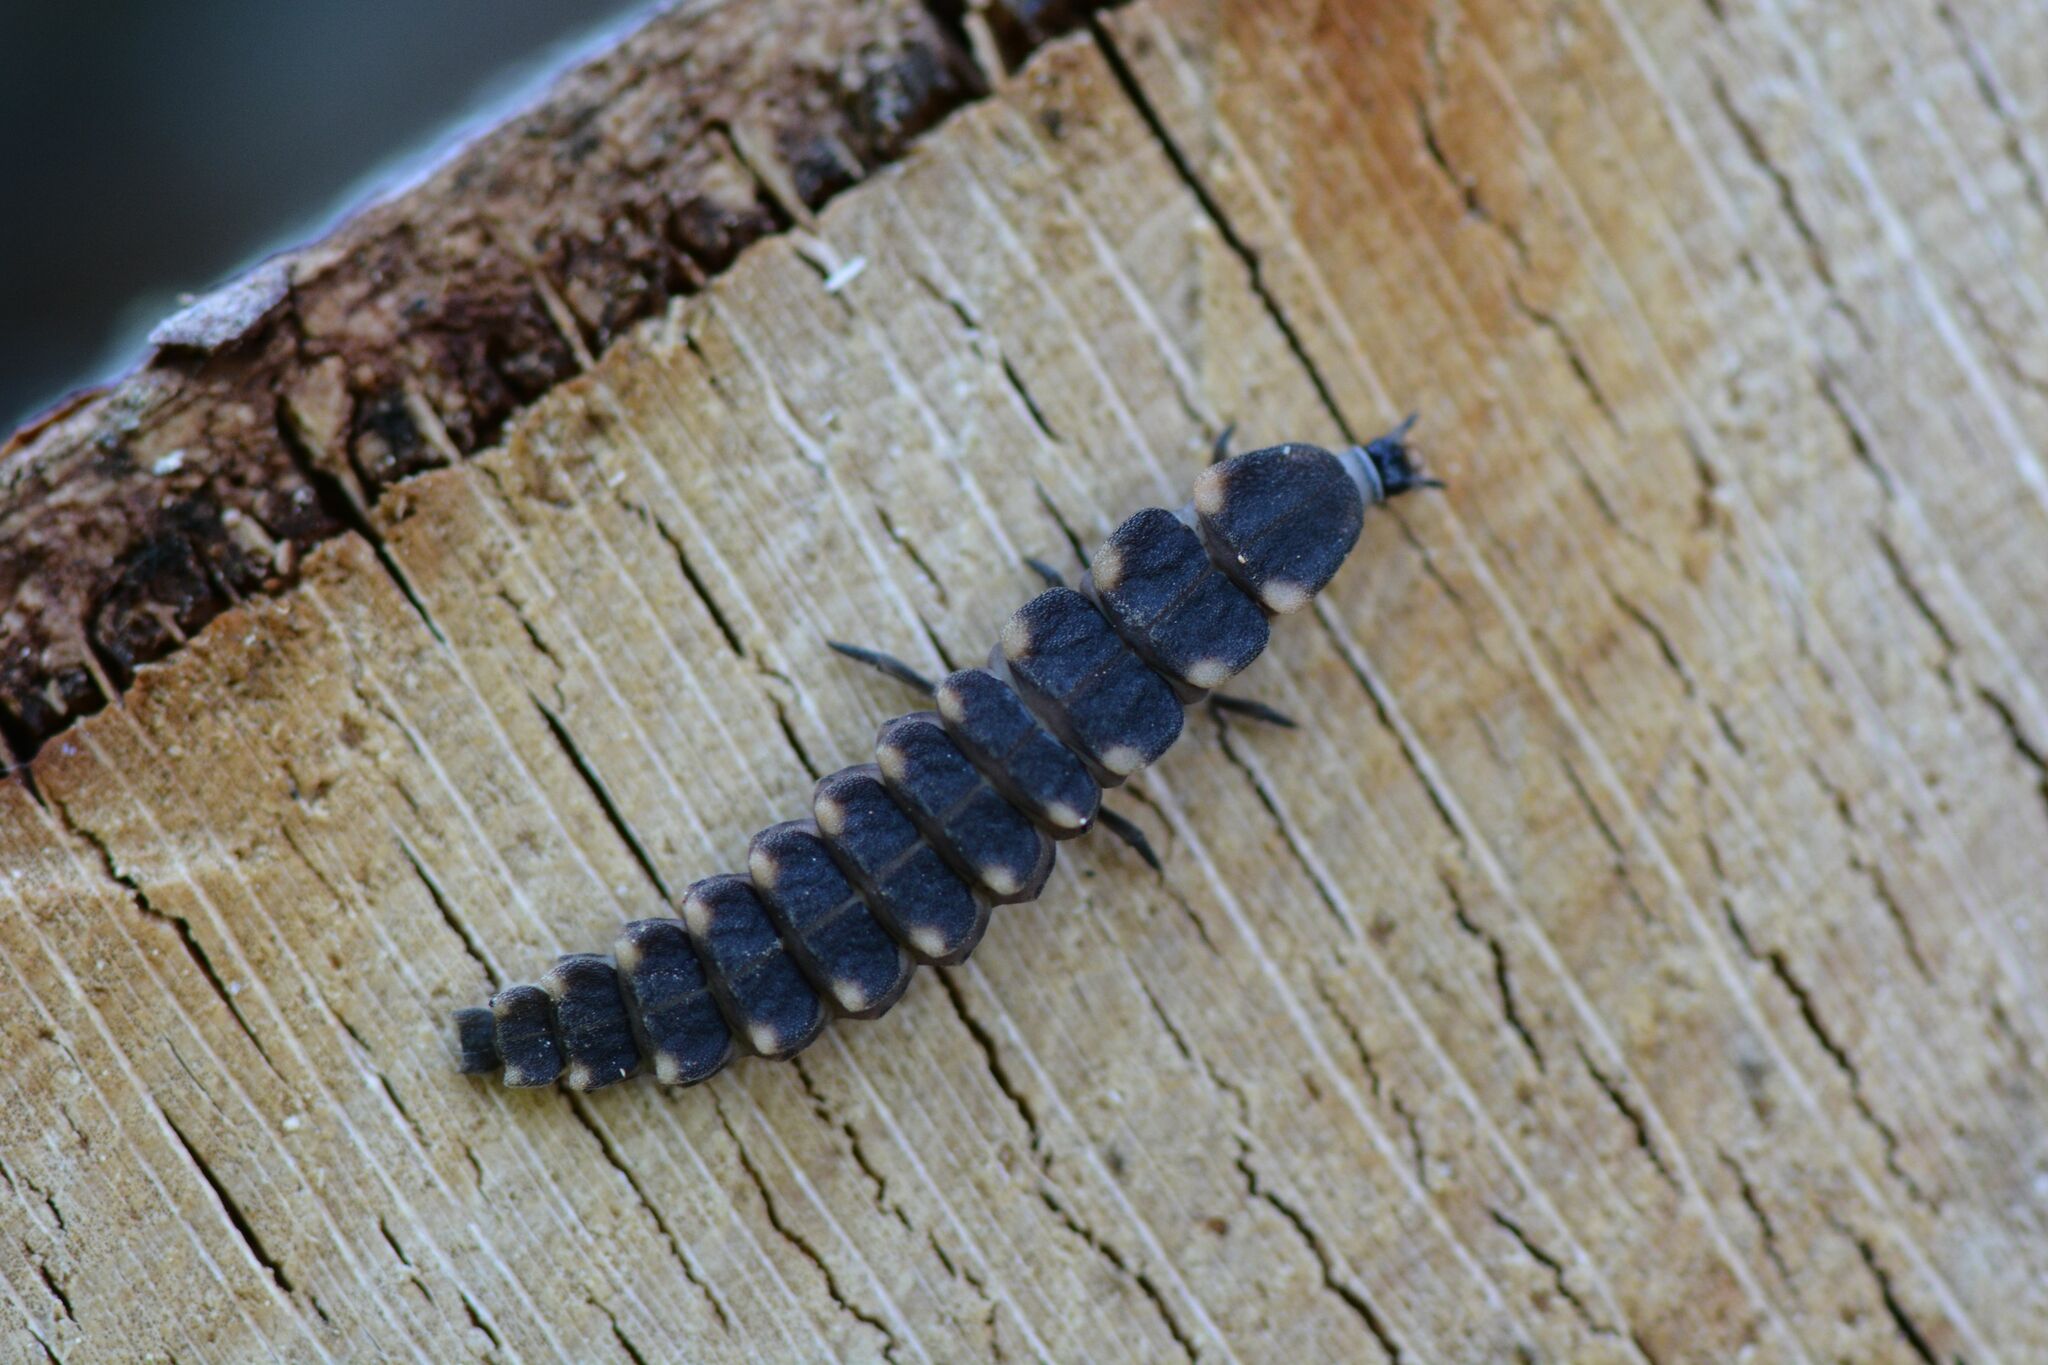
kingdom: Animalia
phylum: Arthropoda
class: Insecta
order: Coleoptera
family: Lampyridae
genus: Lampyris
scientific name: Lampyris noctiluca
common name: Glow-worm
